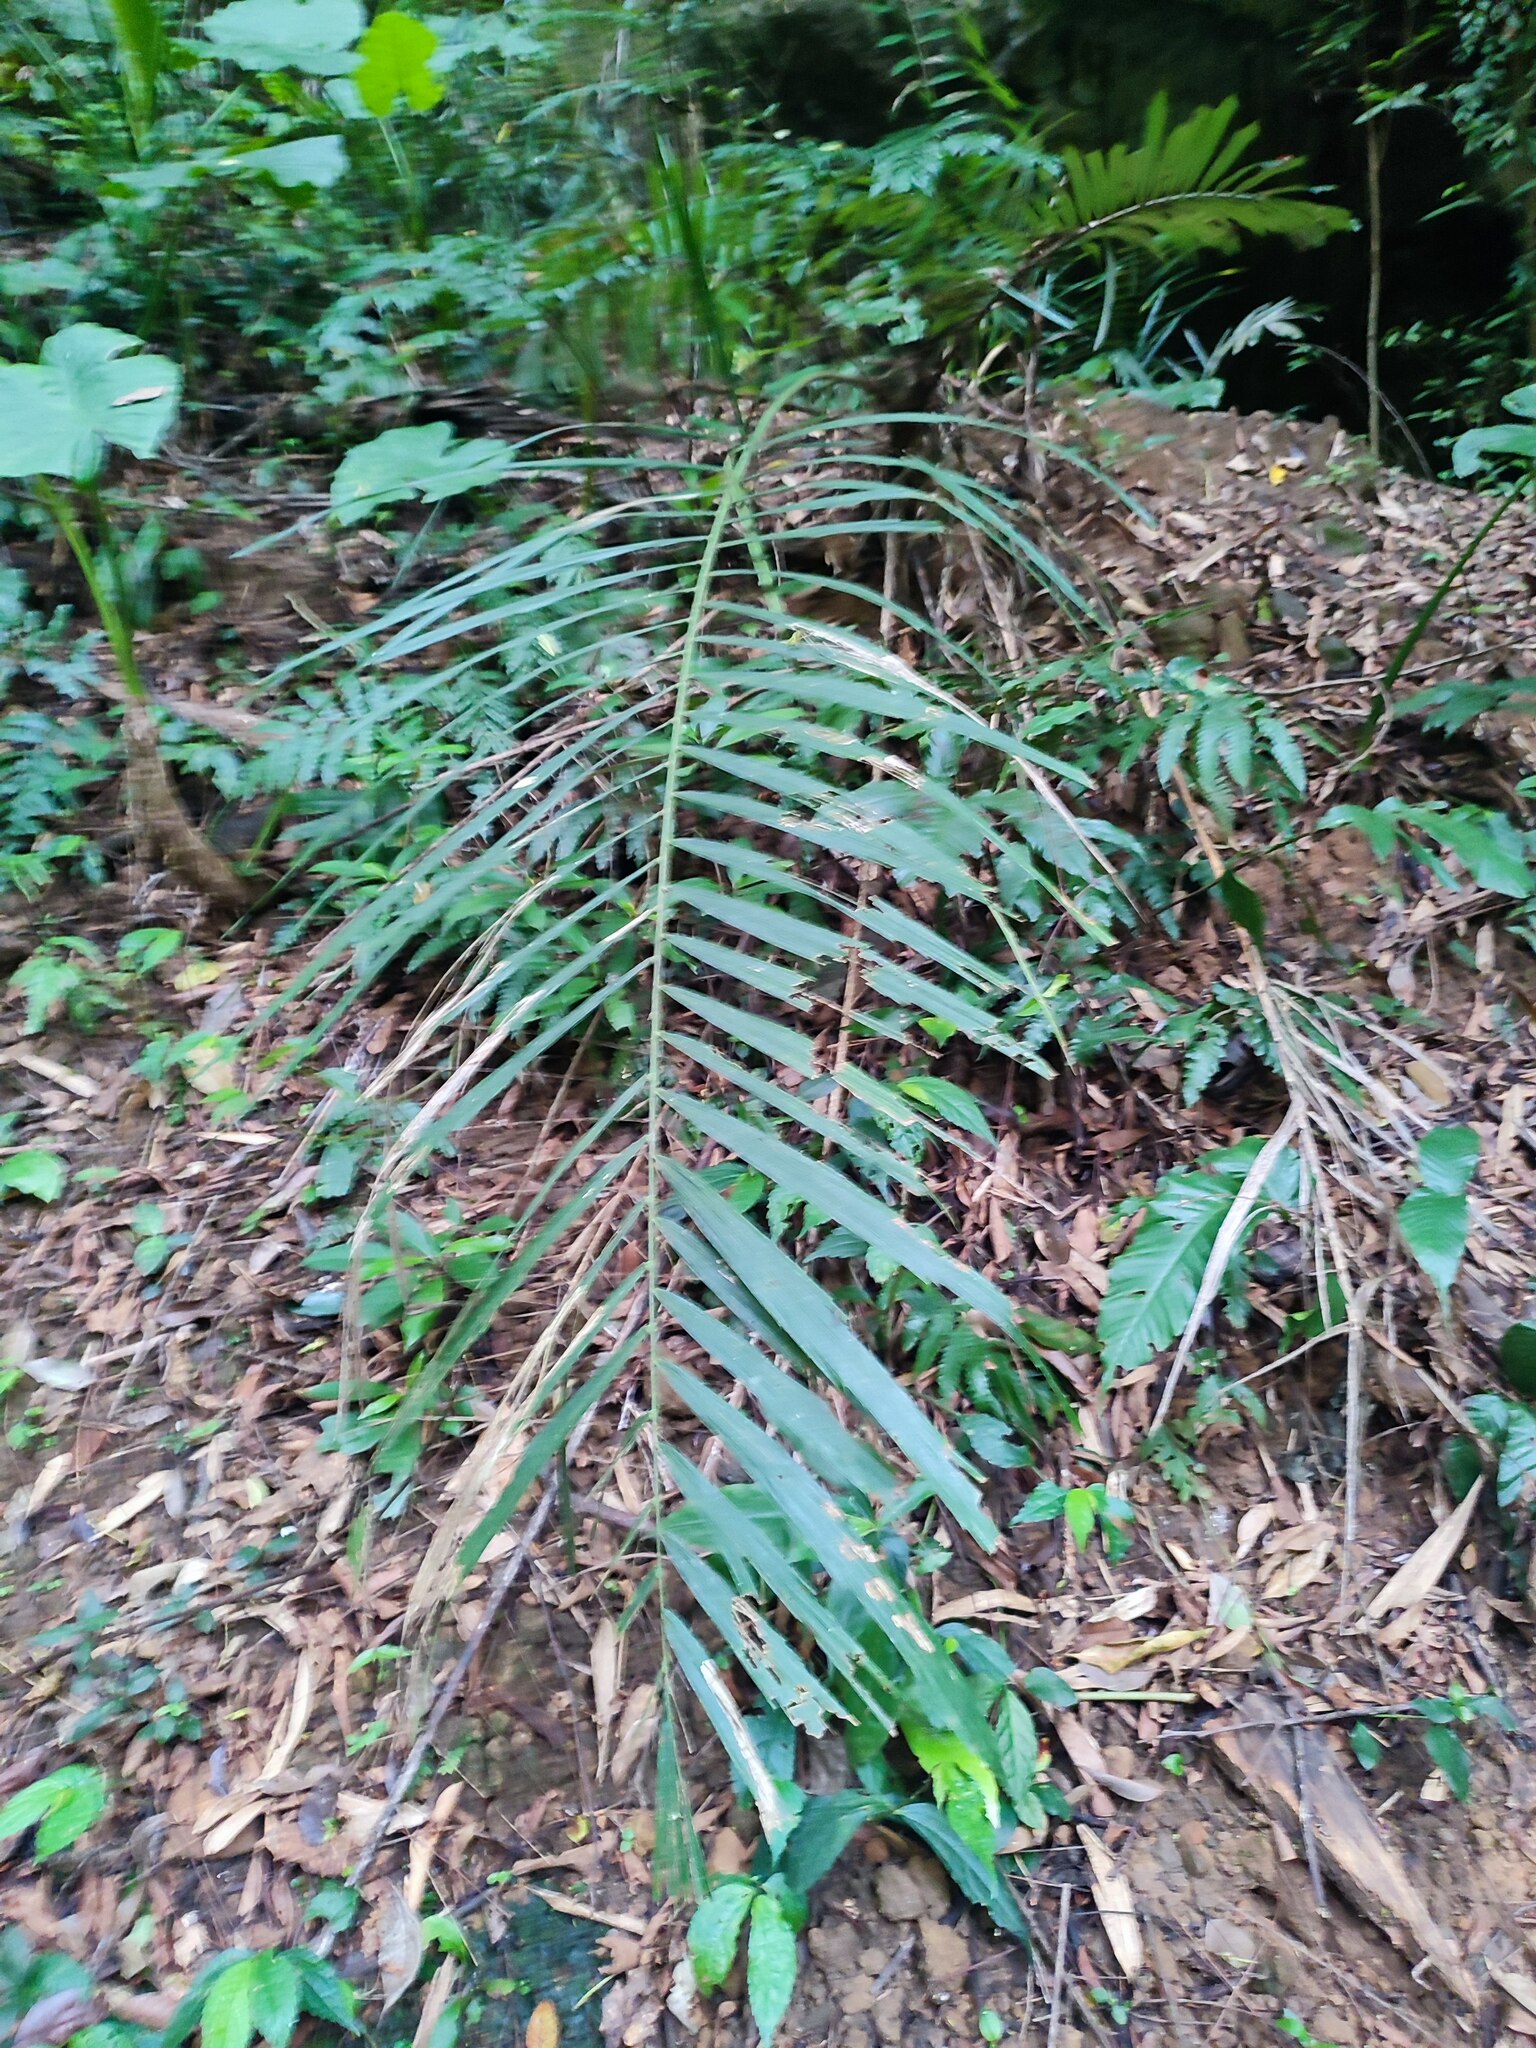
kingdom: Plantae
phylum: Tracheophyta
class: Liliopsida
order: Arecales
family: Arecaceae
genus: Arenga
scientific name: Arenga engleri
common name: Formosan sugar palm
